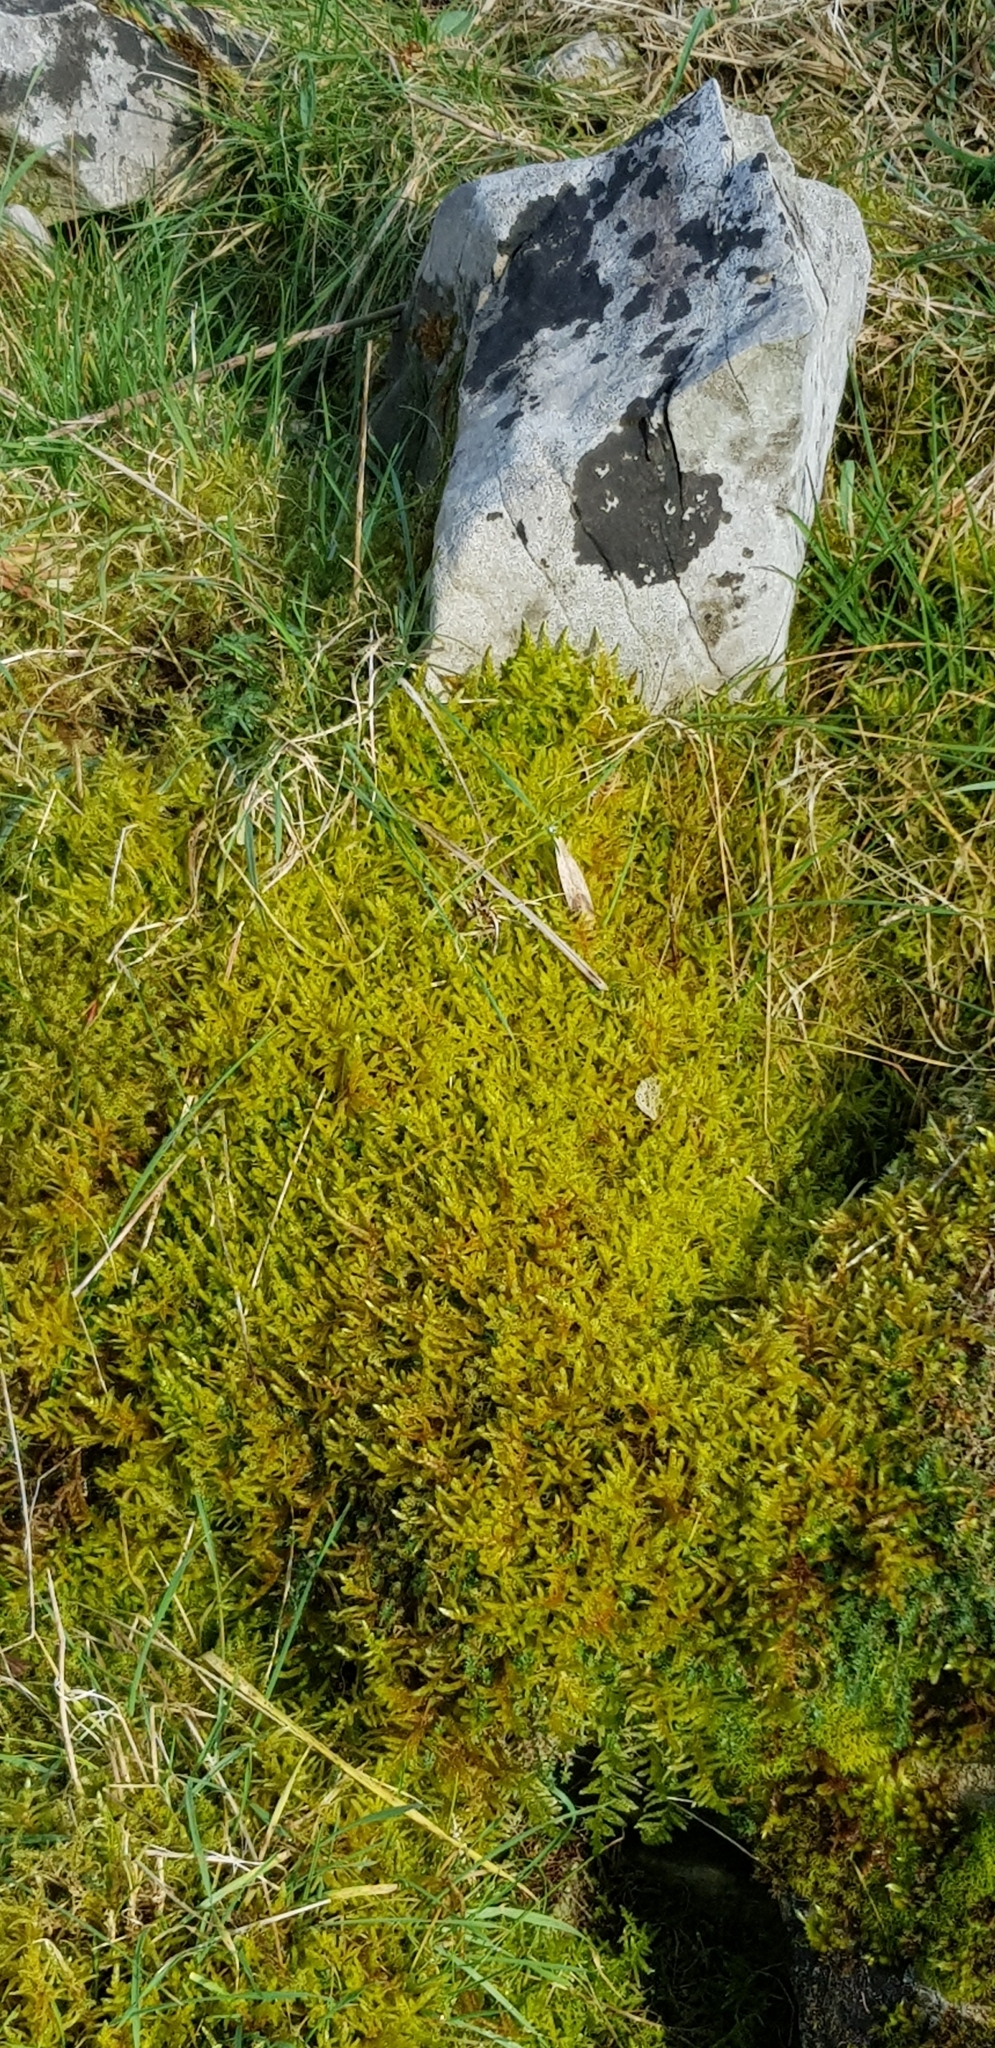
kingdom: Plantae
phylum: Bryophyta
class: Bryopsida
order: Hypnales
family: Brachytheciaceae
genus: Pseudoscleropodium
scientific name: Pseudoscleropodium purum
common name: Neat feather-moss
